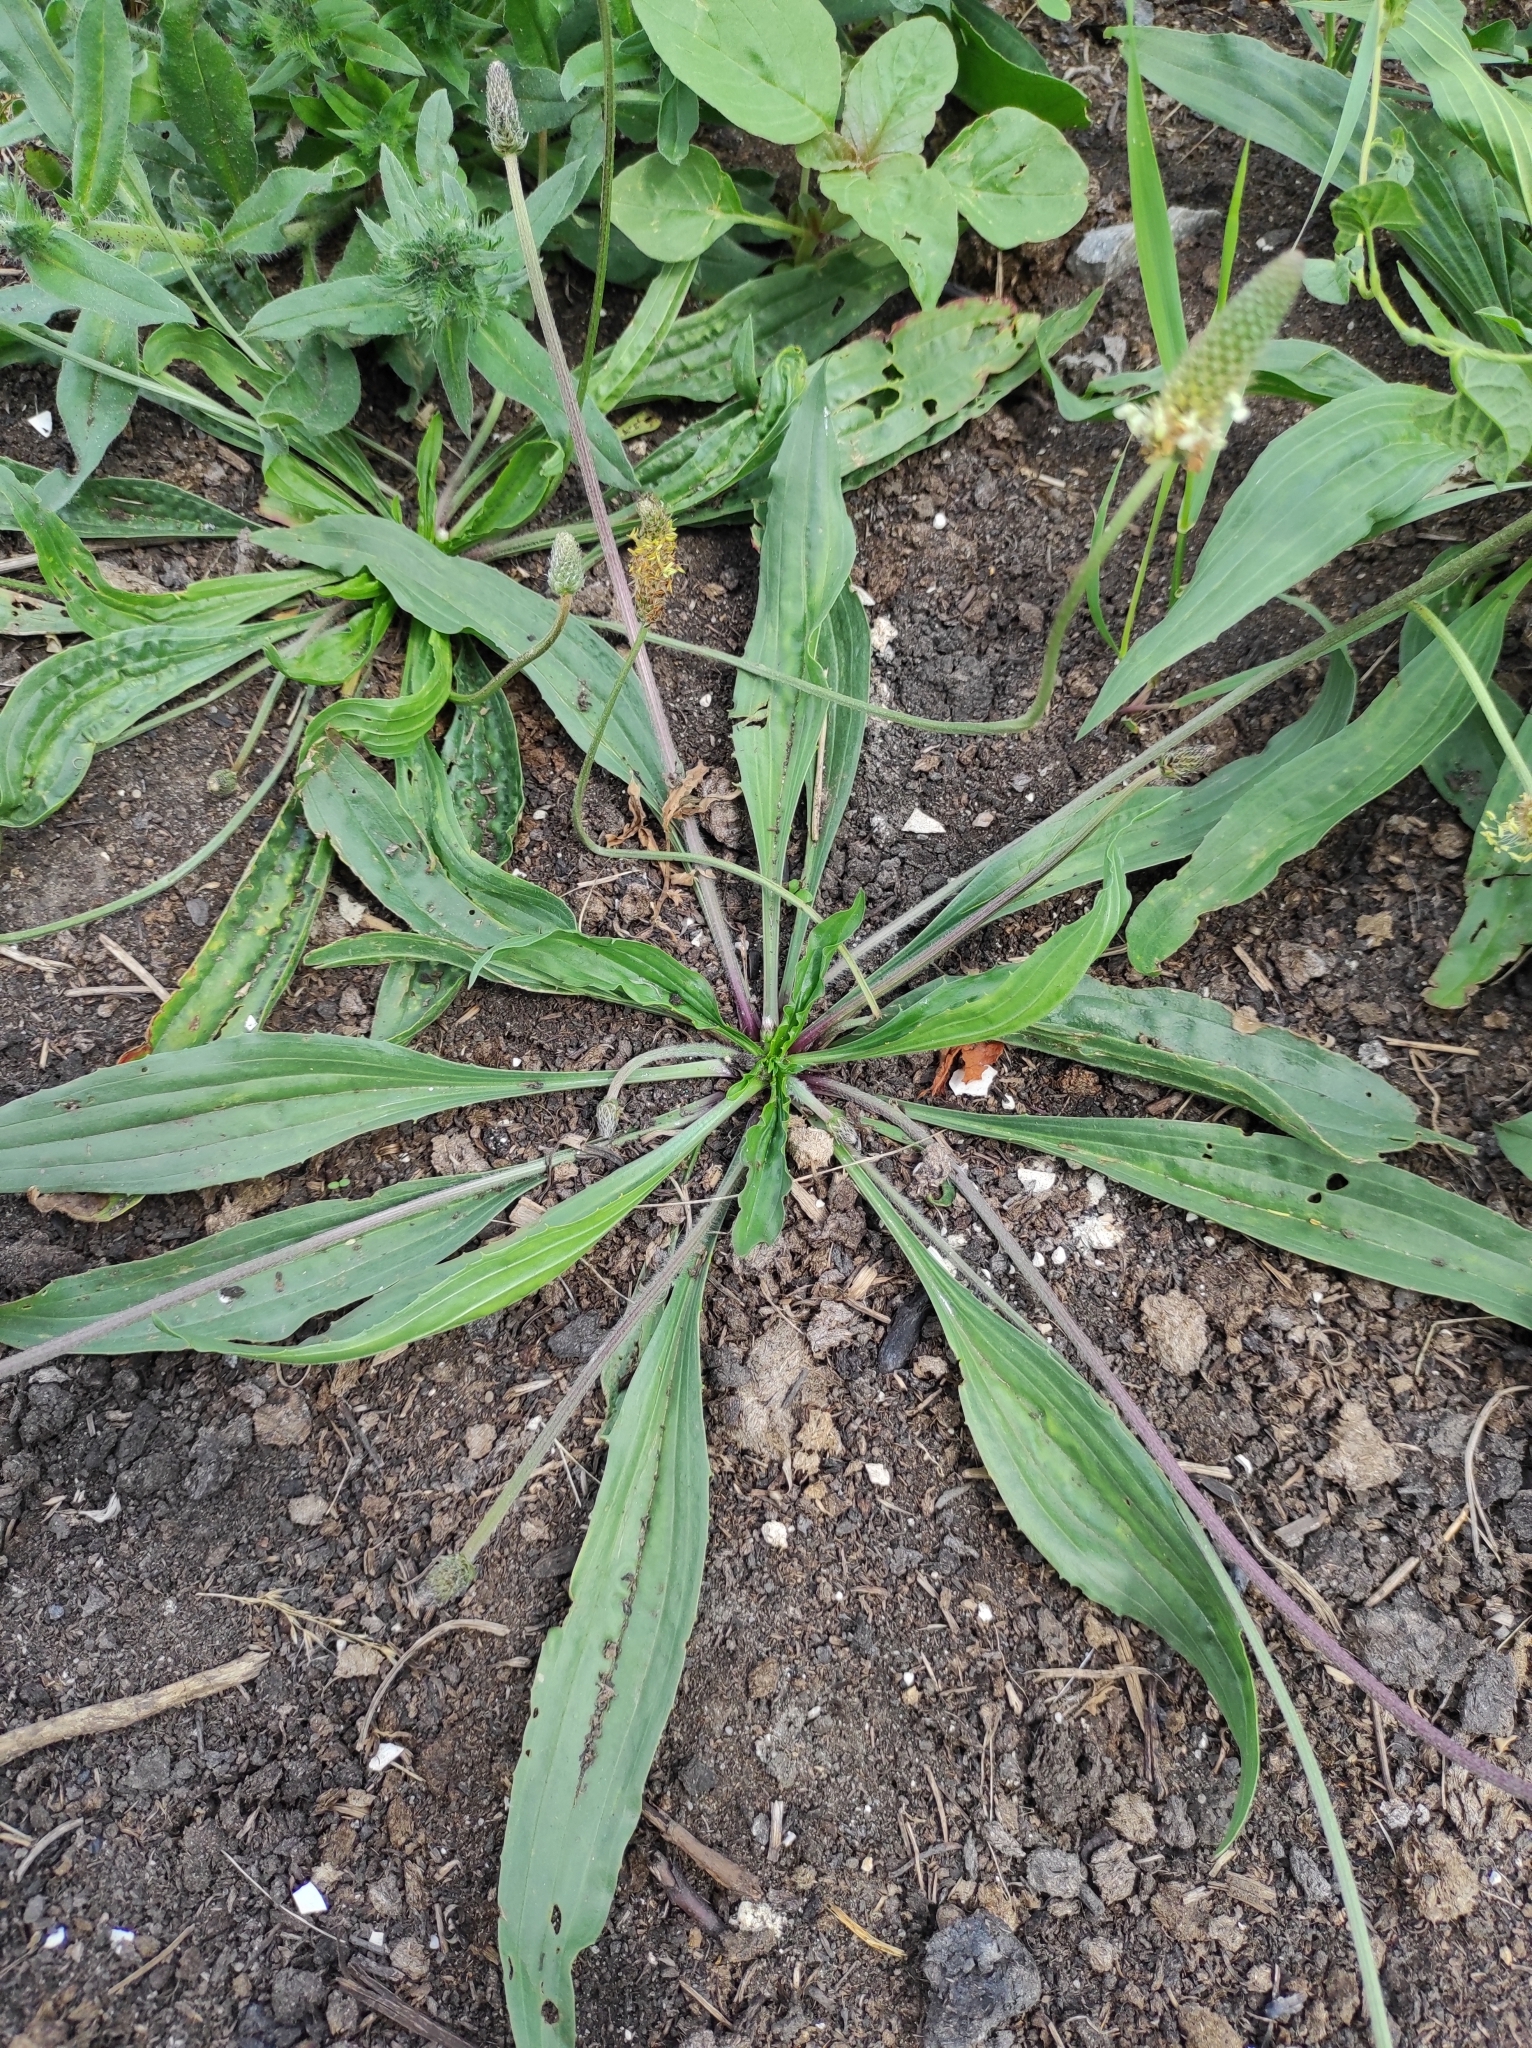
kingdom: Plantae
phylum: Tracheophyta
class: Magnoliopsida
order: Lamiales
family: Plantaginaceae
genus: Plantago
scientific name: Plantago lanceolata
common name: Ribwort plantain
